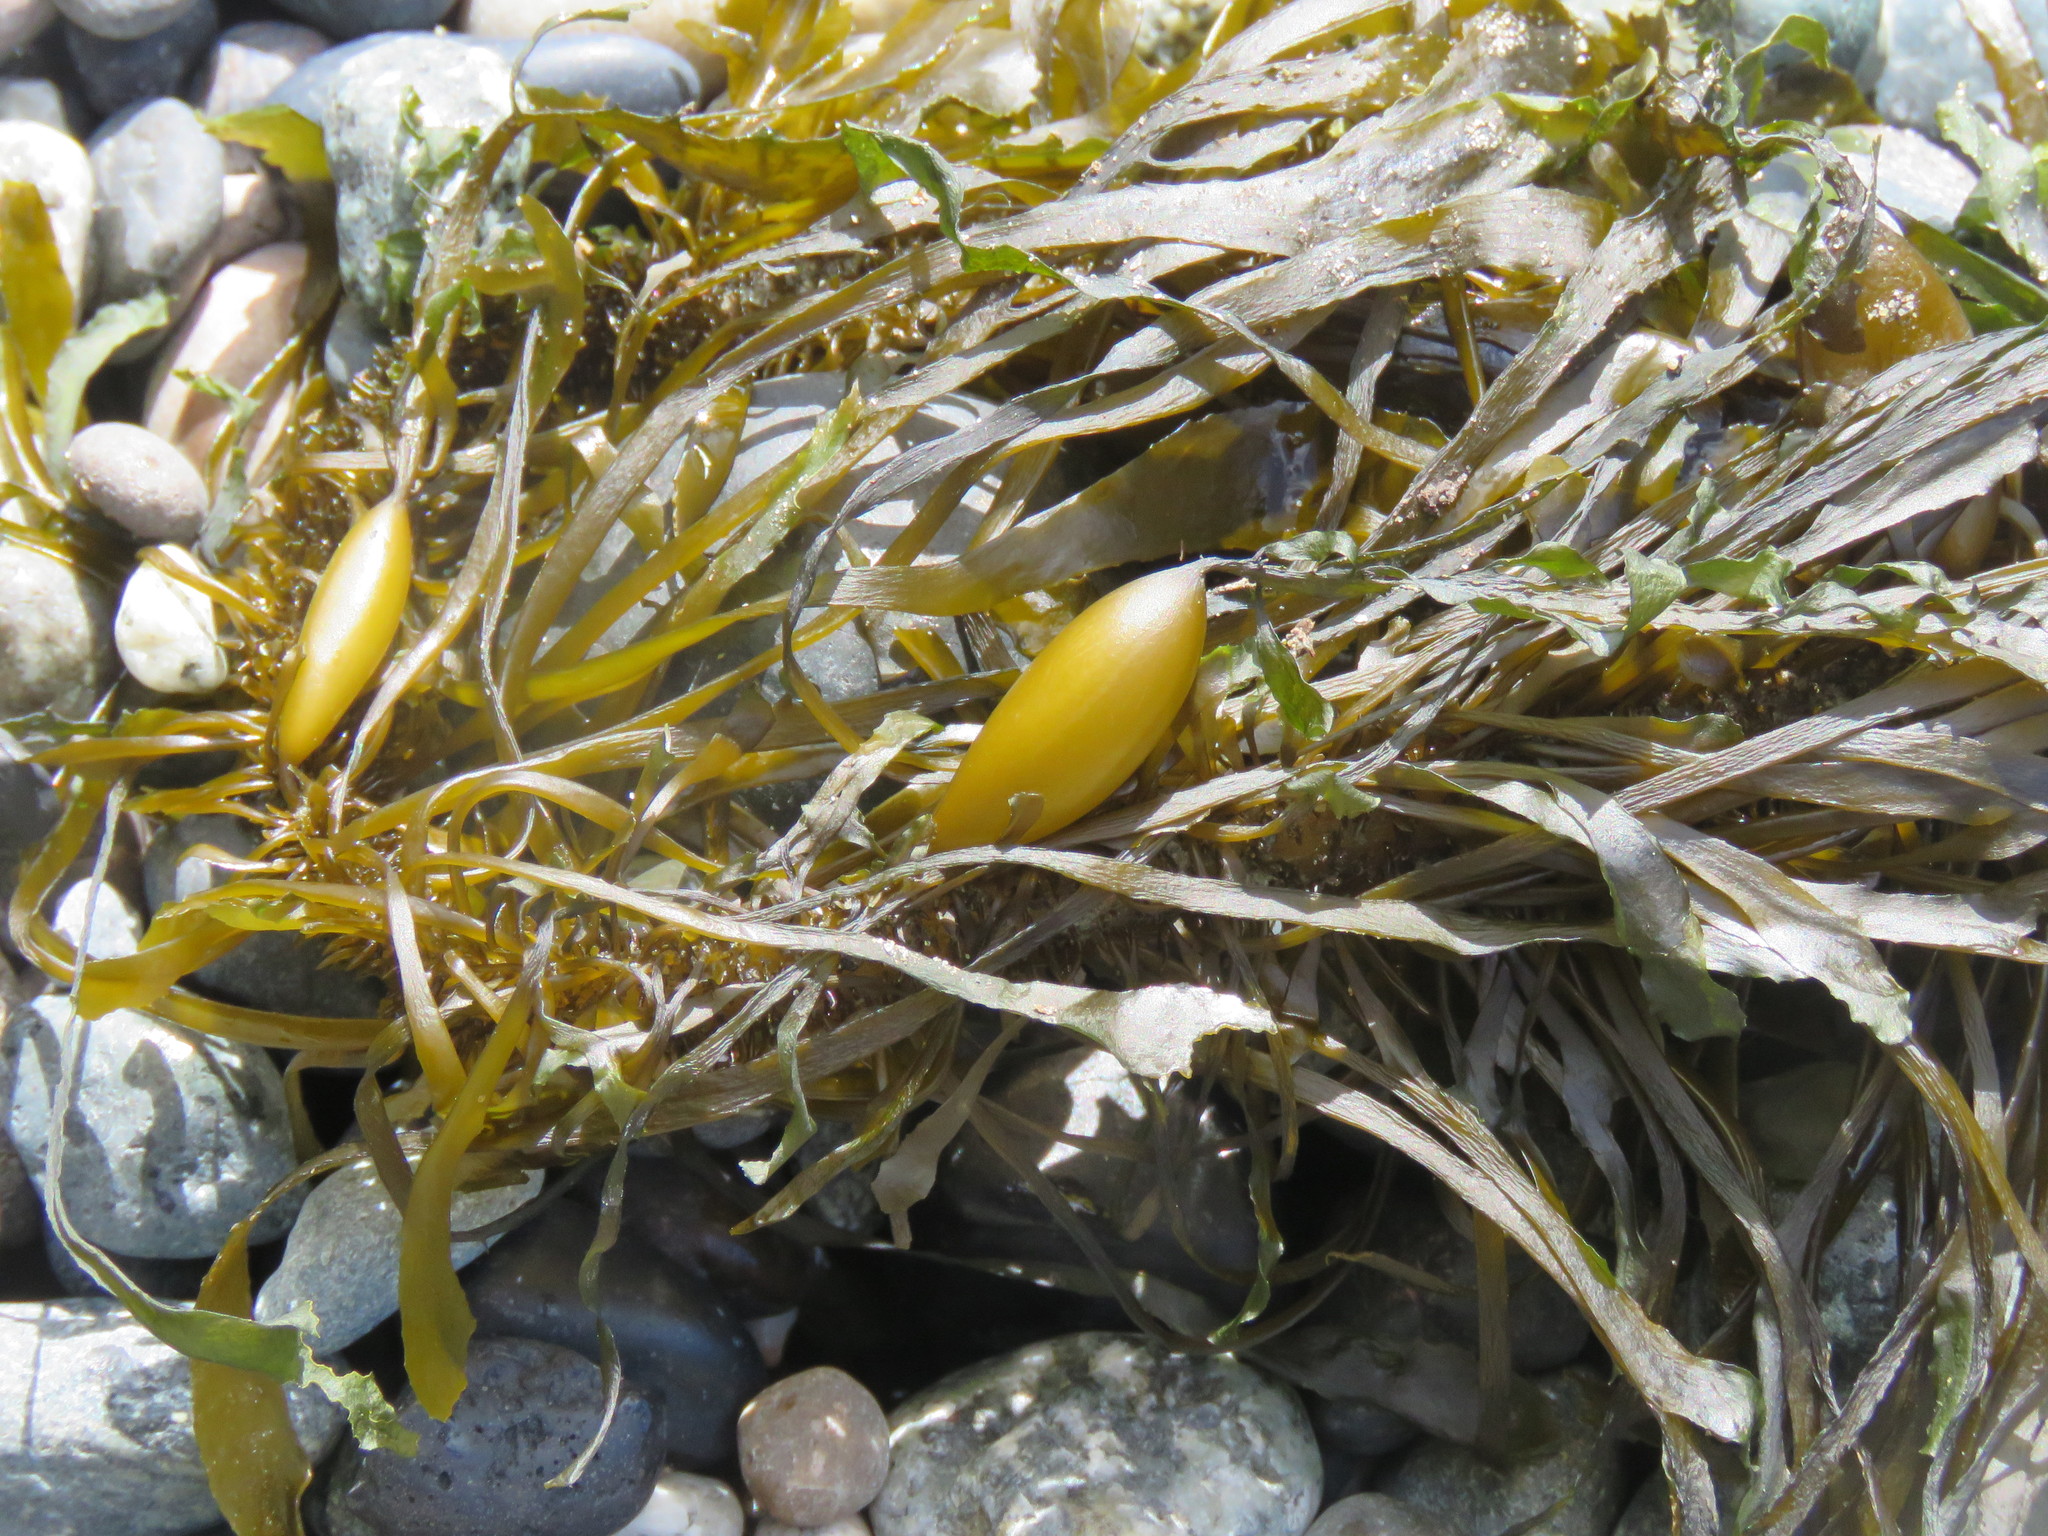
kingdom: Chromista
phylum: Ochrophyta
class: Phaeophyceae
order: Laminariales
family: Lessoniaceae
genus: Egregia
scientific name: Egregia menziesii
